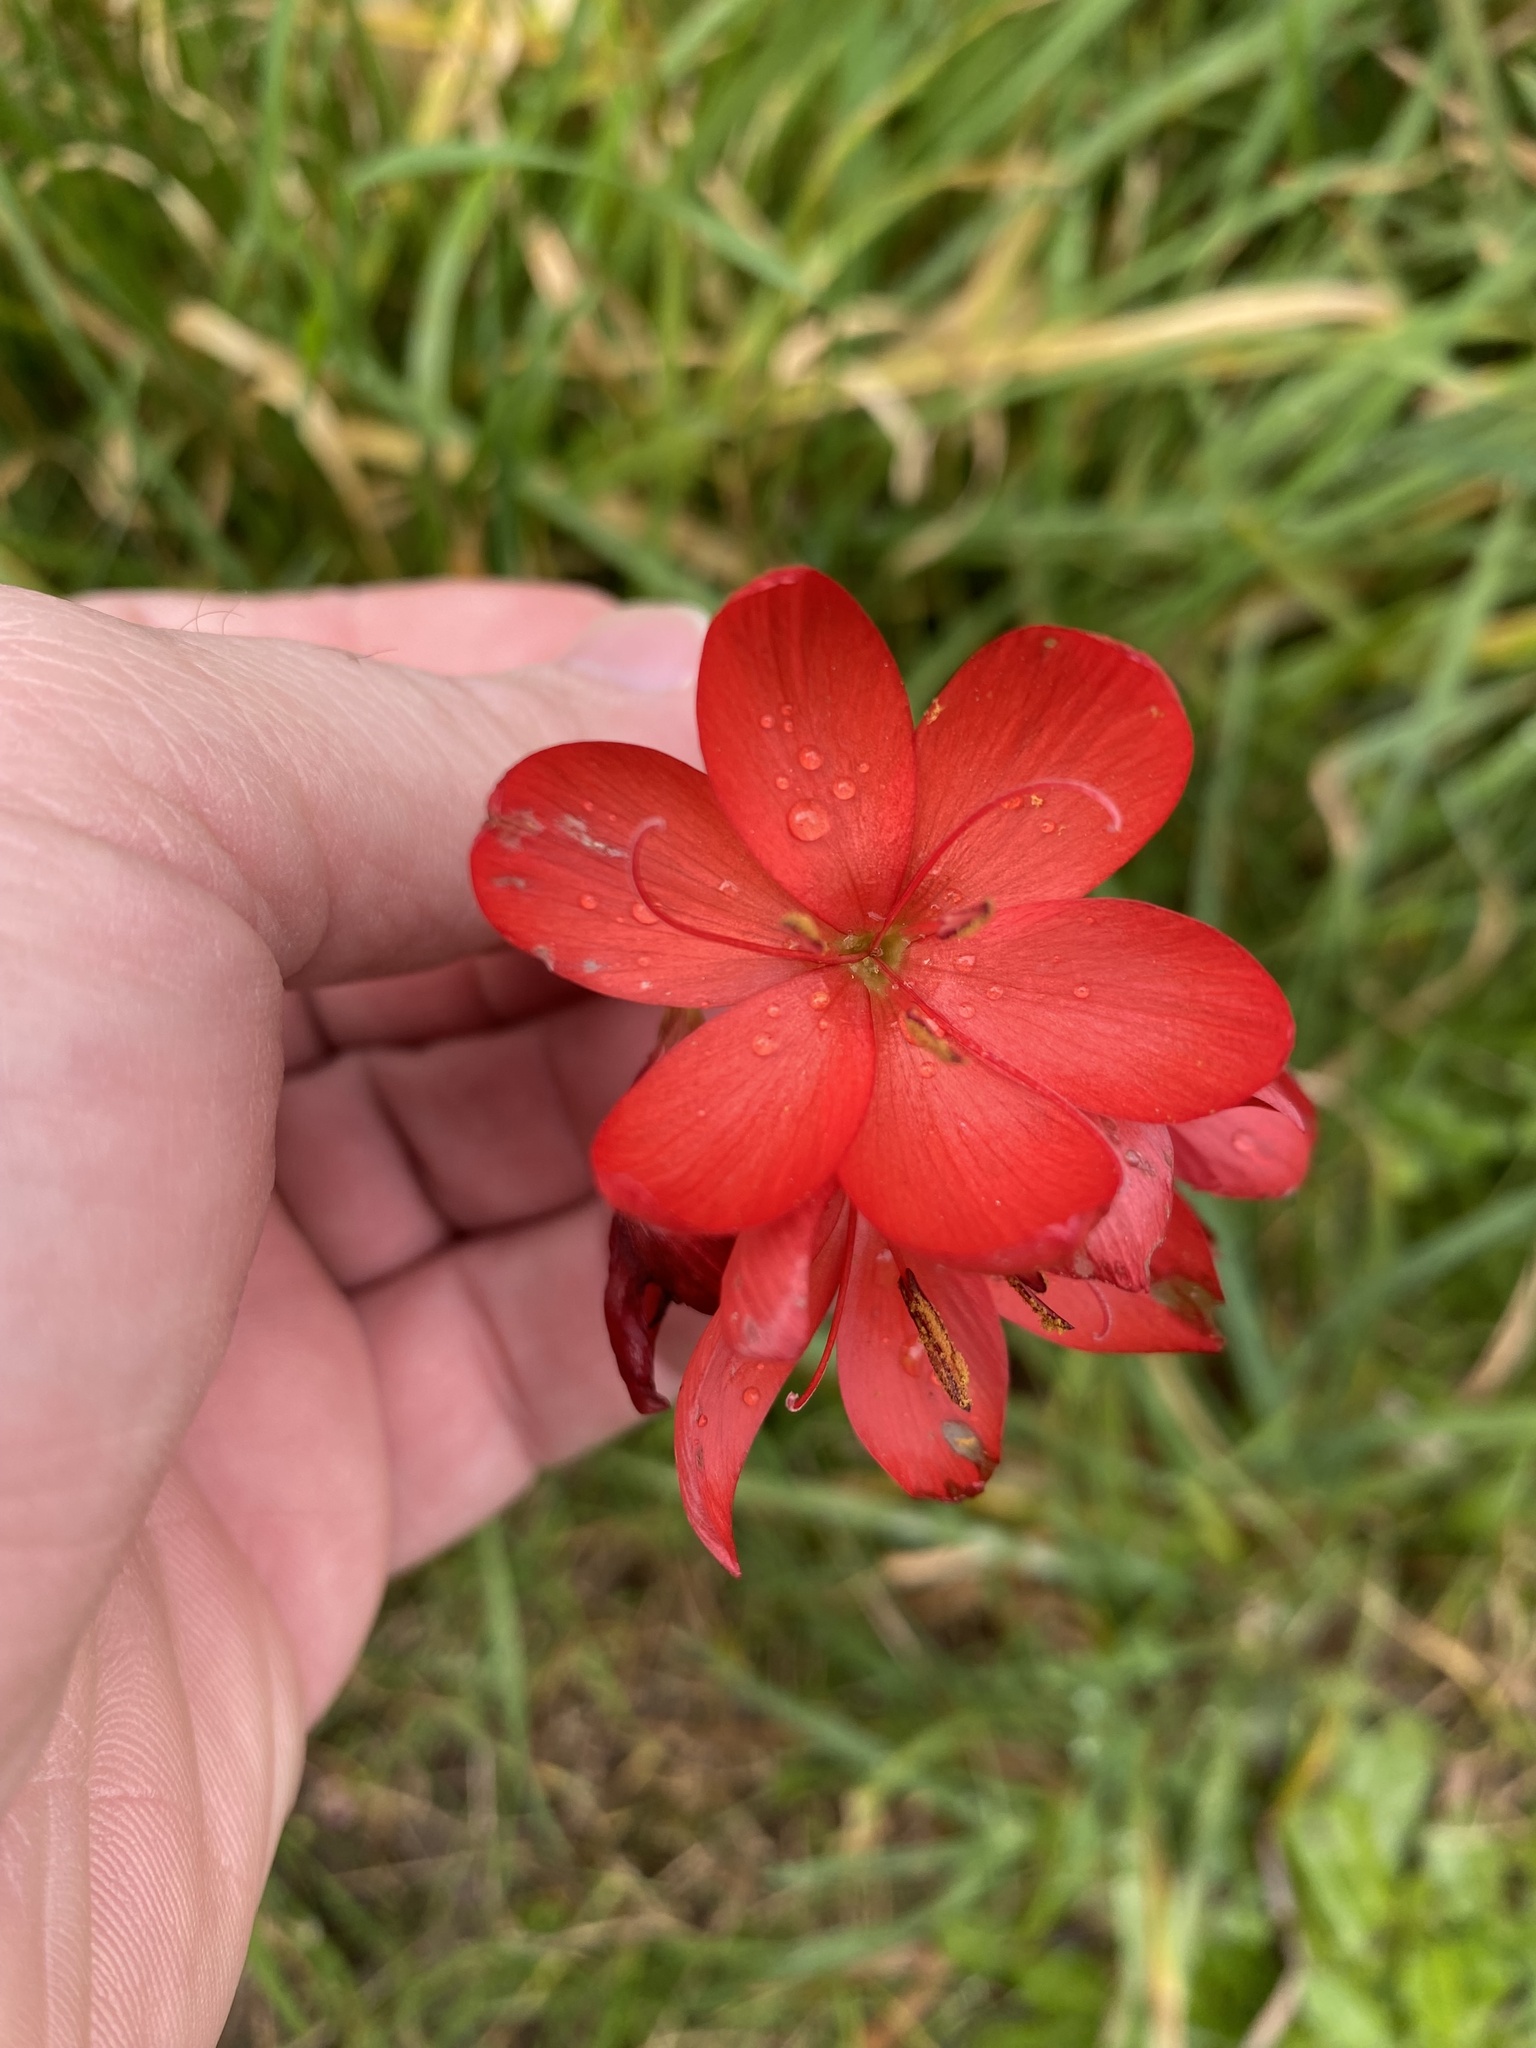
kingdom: Plantae
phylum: Tracheophyta
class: Liliopsida
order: Asparagales
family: Iridaceae
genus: Hesperantha
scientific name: Hesperantha coccinea
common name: River-lily
